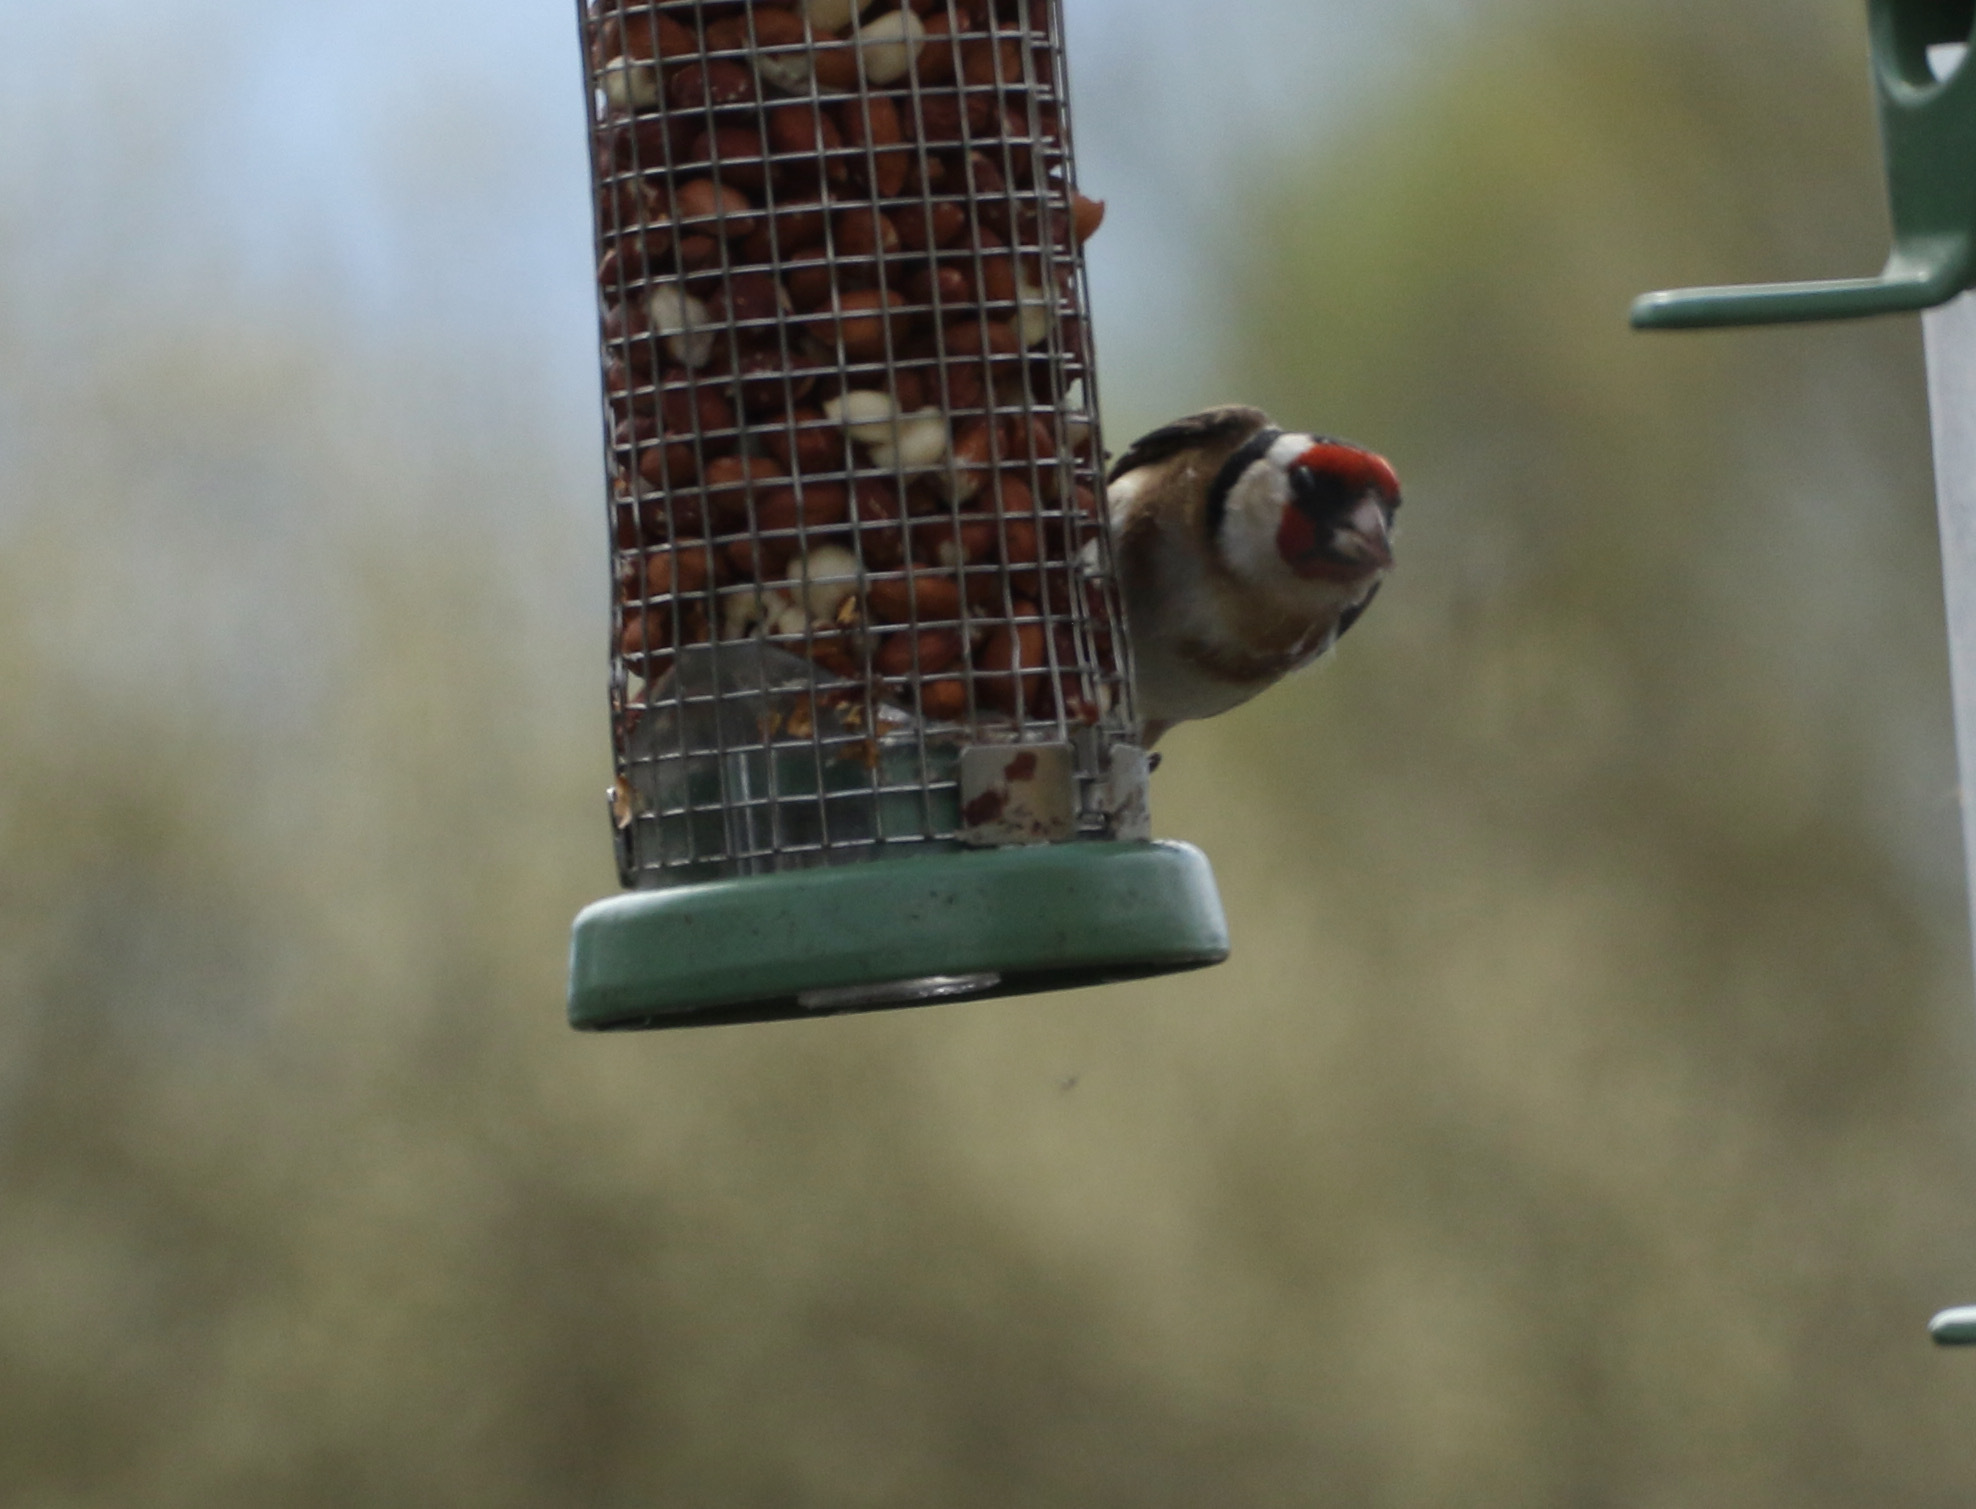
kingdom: Animalia
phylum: Chordata
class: Aves
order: Passeriformes
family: Fringillidae
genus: Carduelis
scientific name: Carduelis carduelis
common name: European goldfinch
